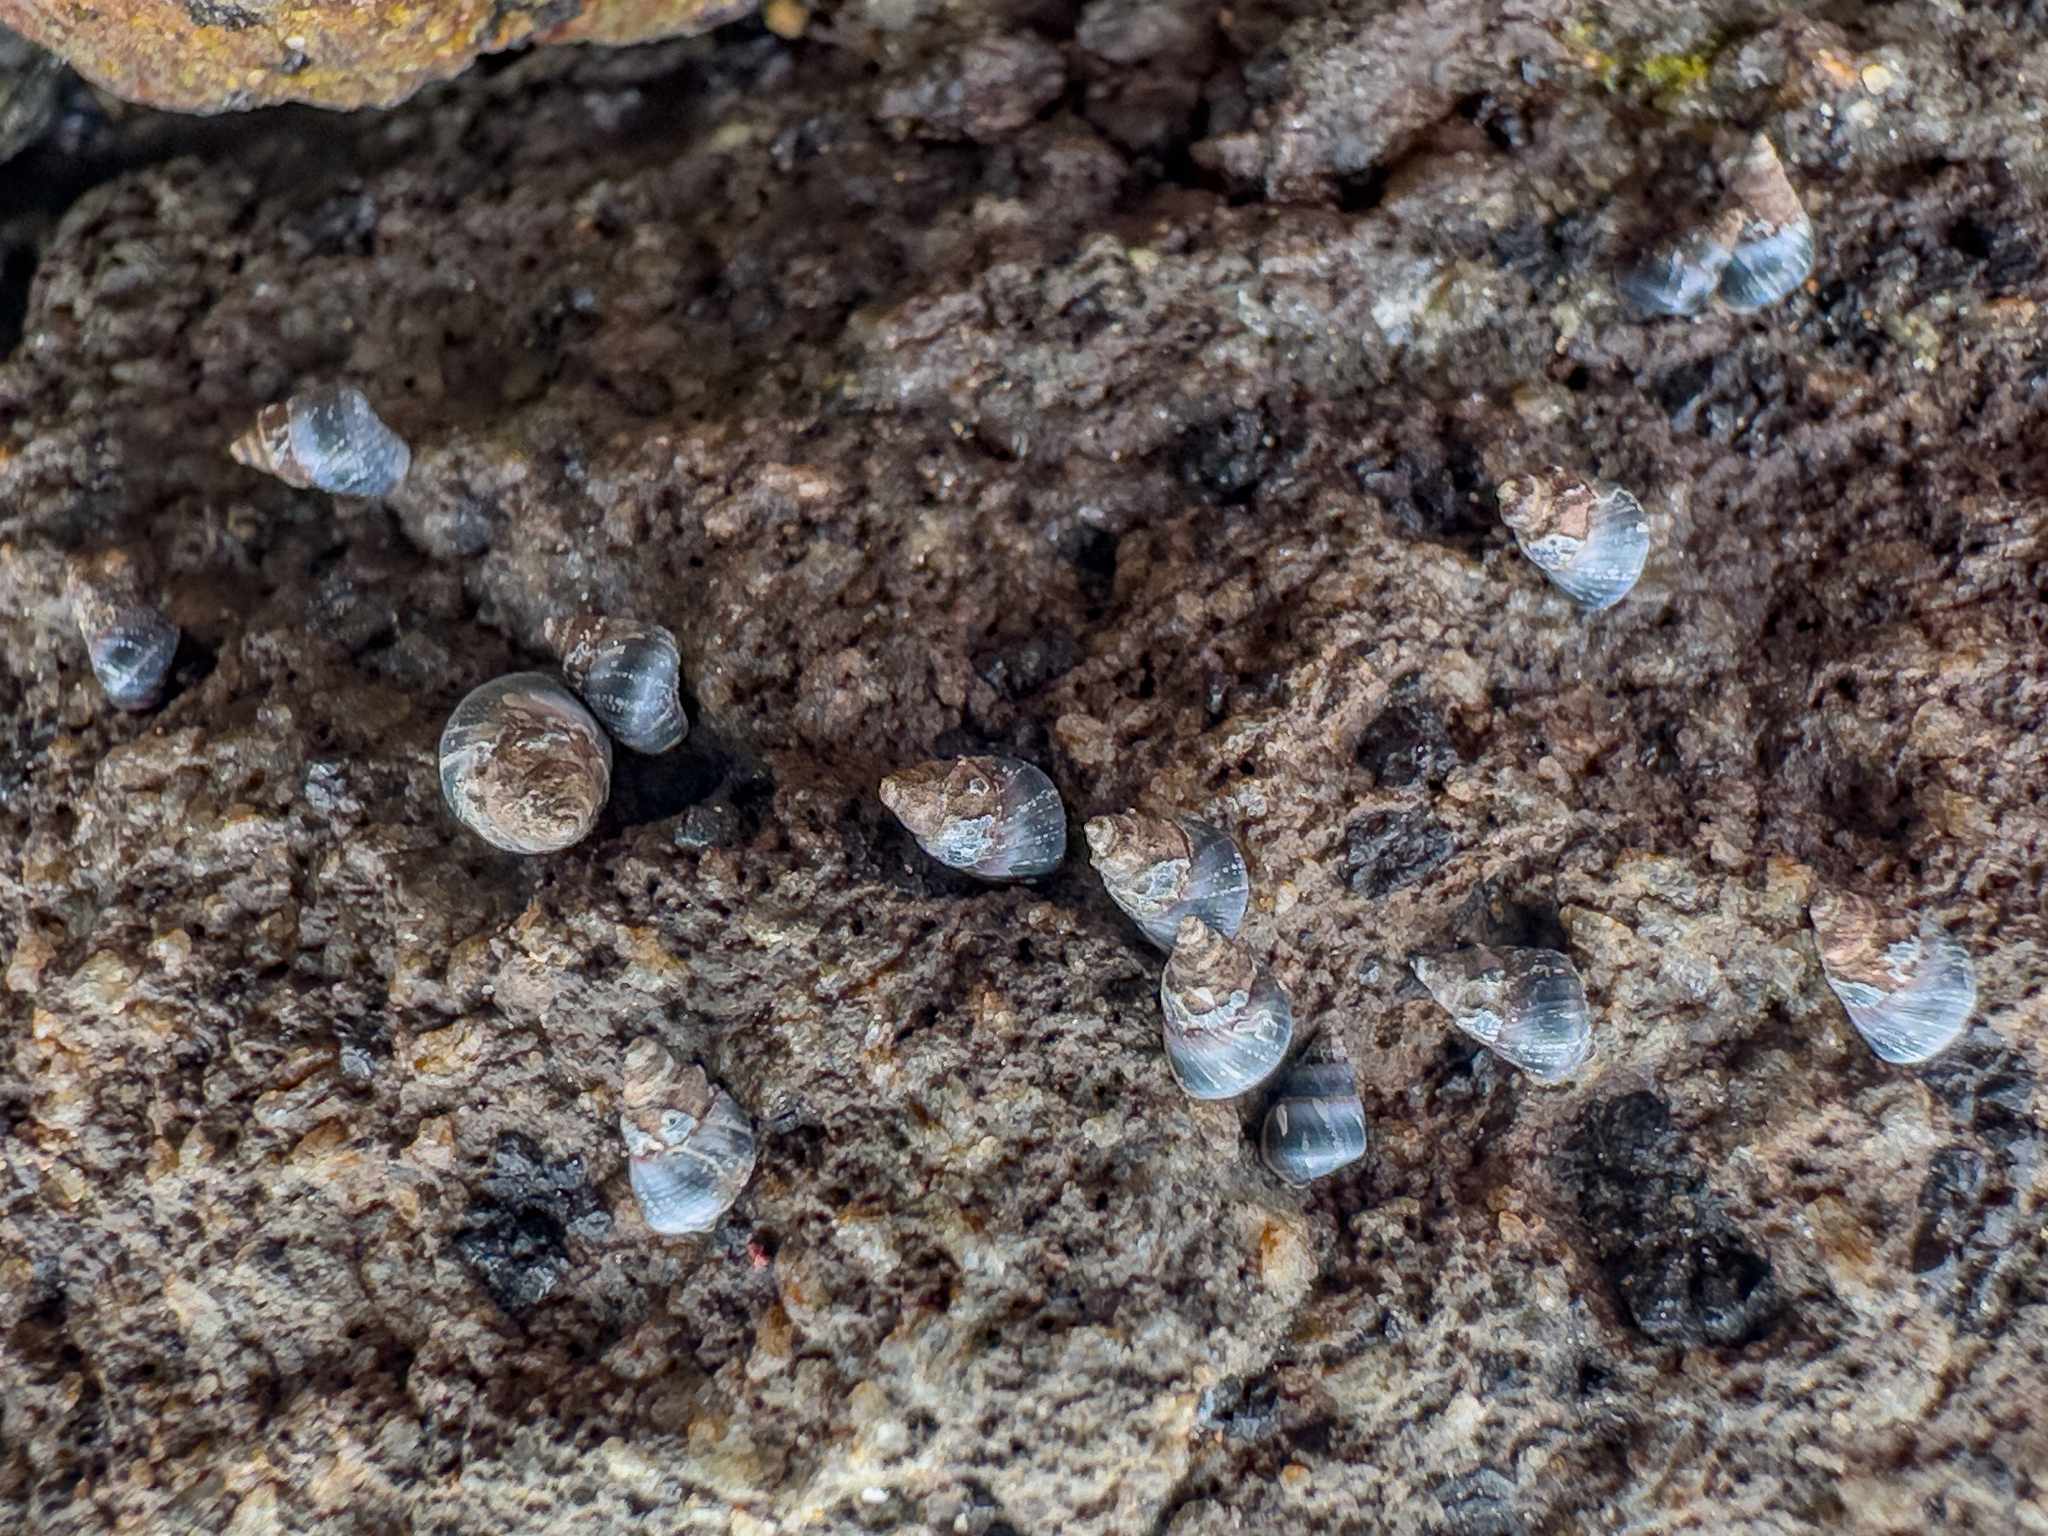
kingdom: Animalia
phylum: Mollusca
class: Gastropoda
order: Littorinimorpha
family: Littorinidae
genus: Austrolittorina
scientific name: Austrolittorina antipodum
